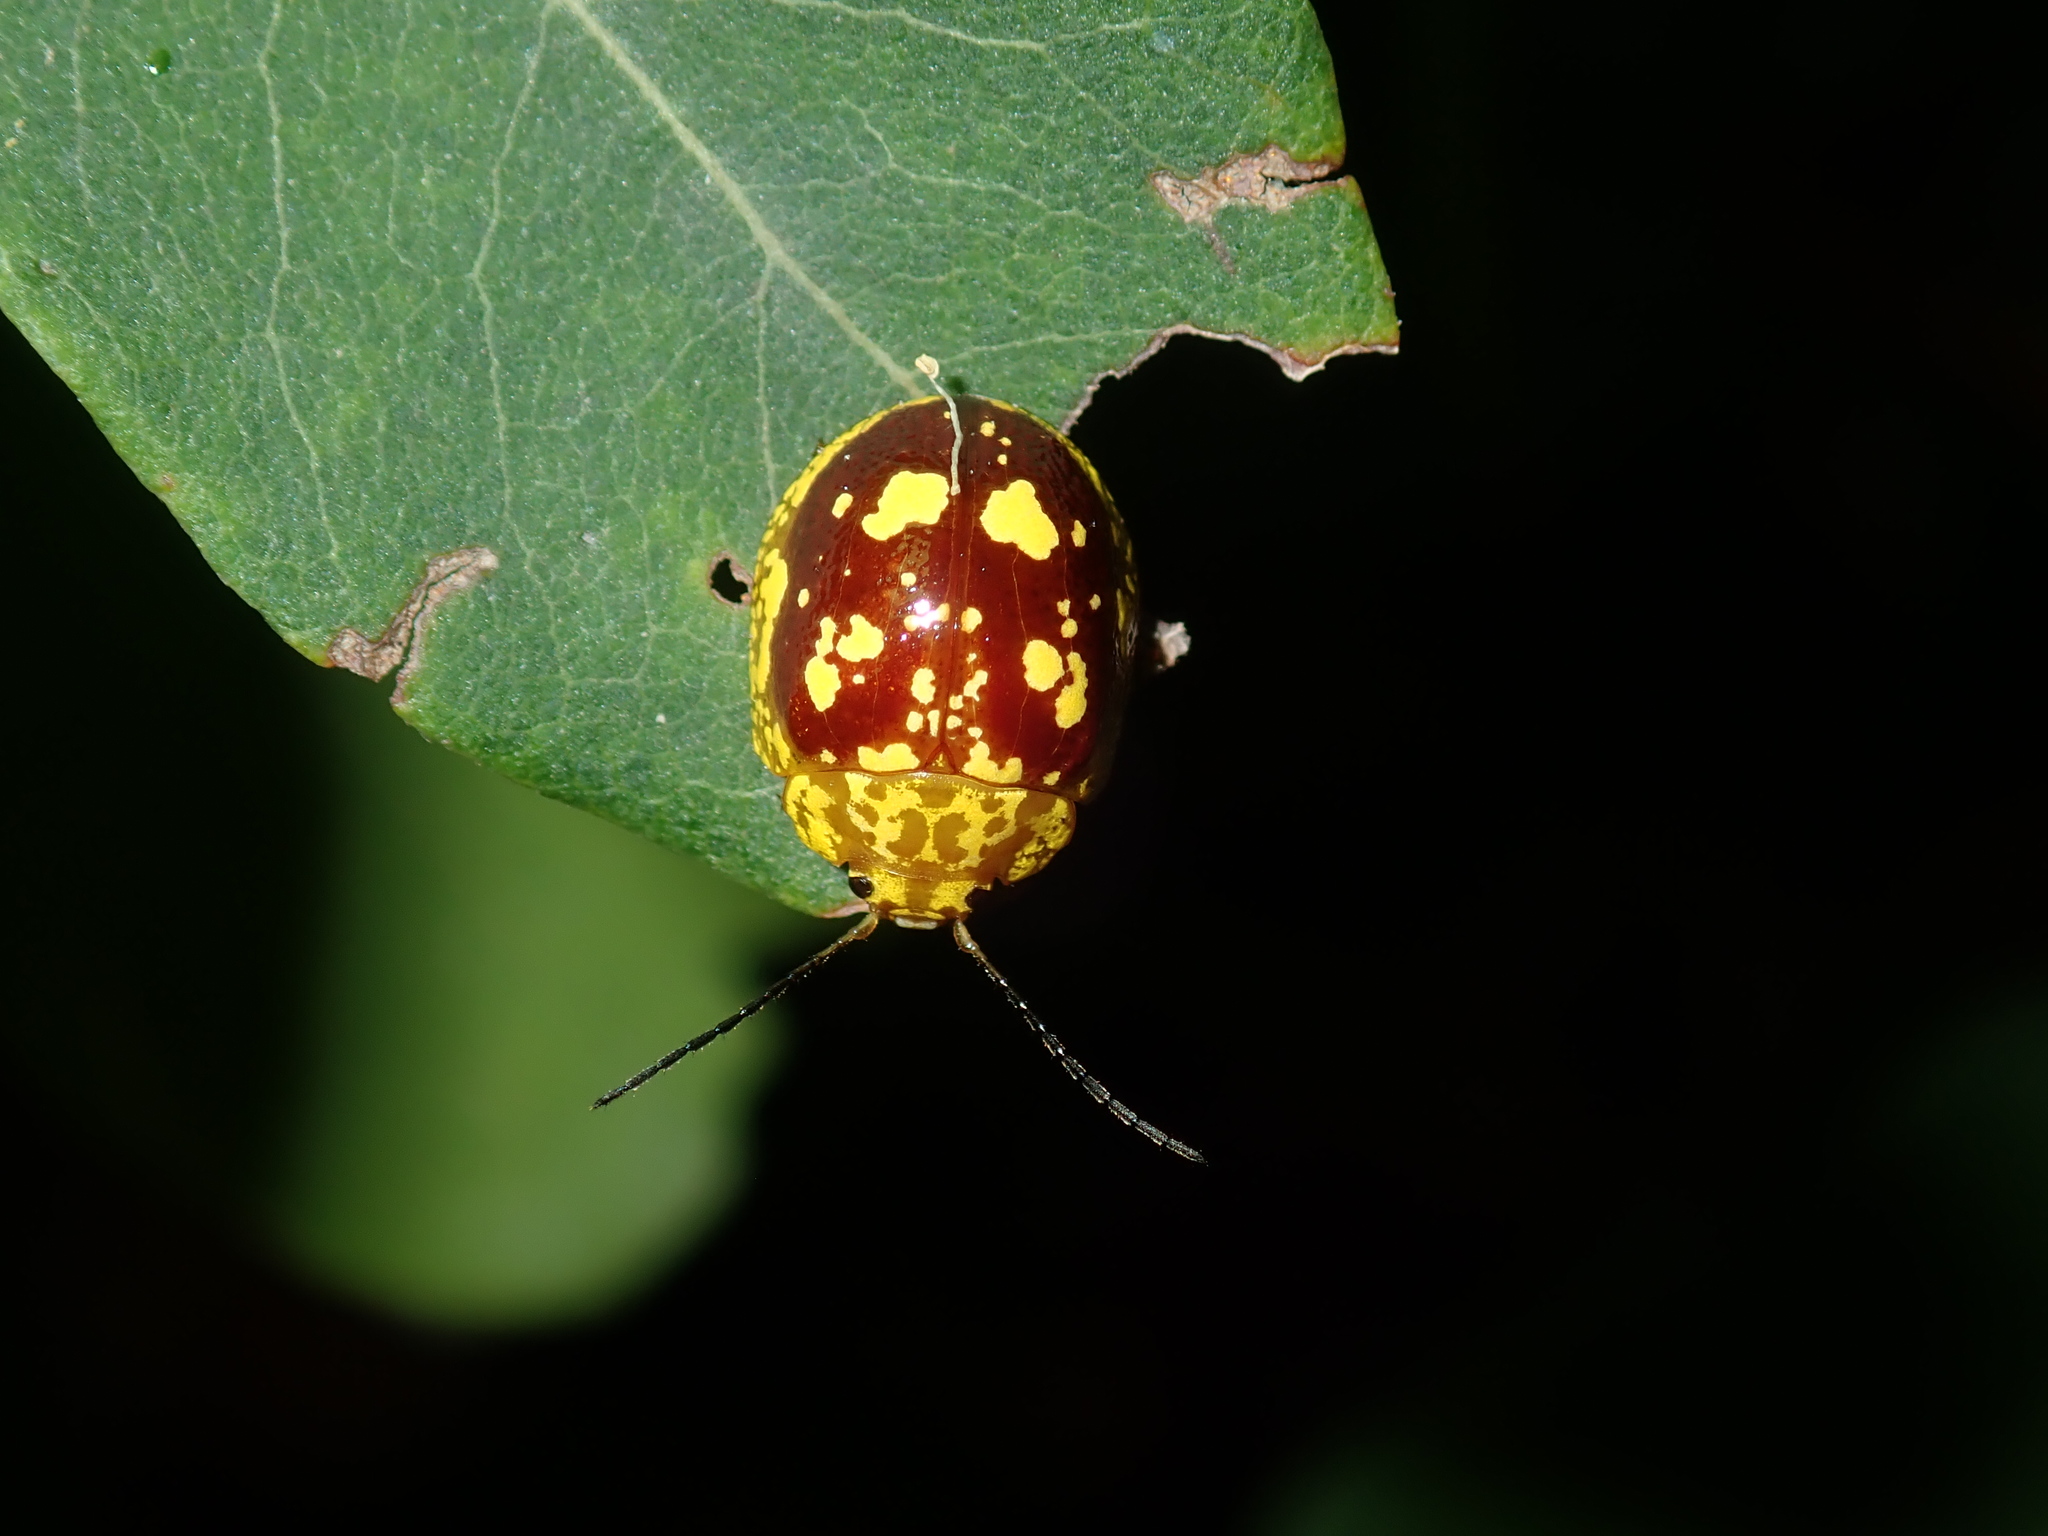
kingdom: Animalia
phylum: Arthropoda
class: Insecta
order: Coleoptera
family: Chrysomelidae
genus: Paropsis
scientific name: Paropsis maculata
